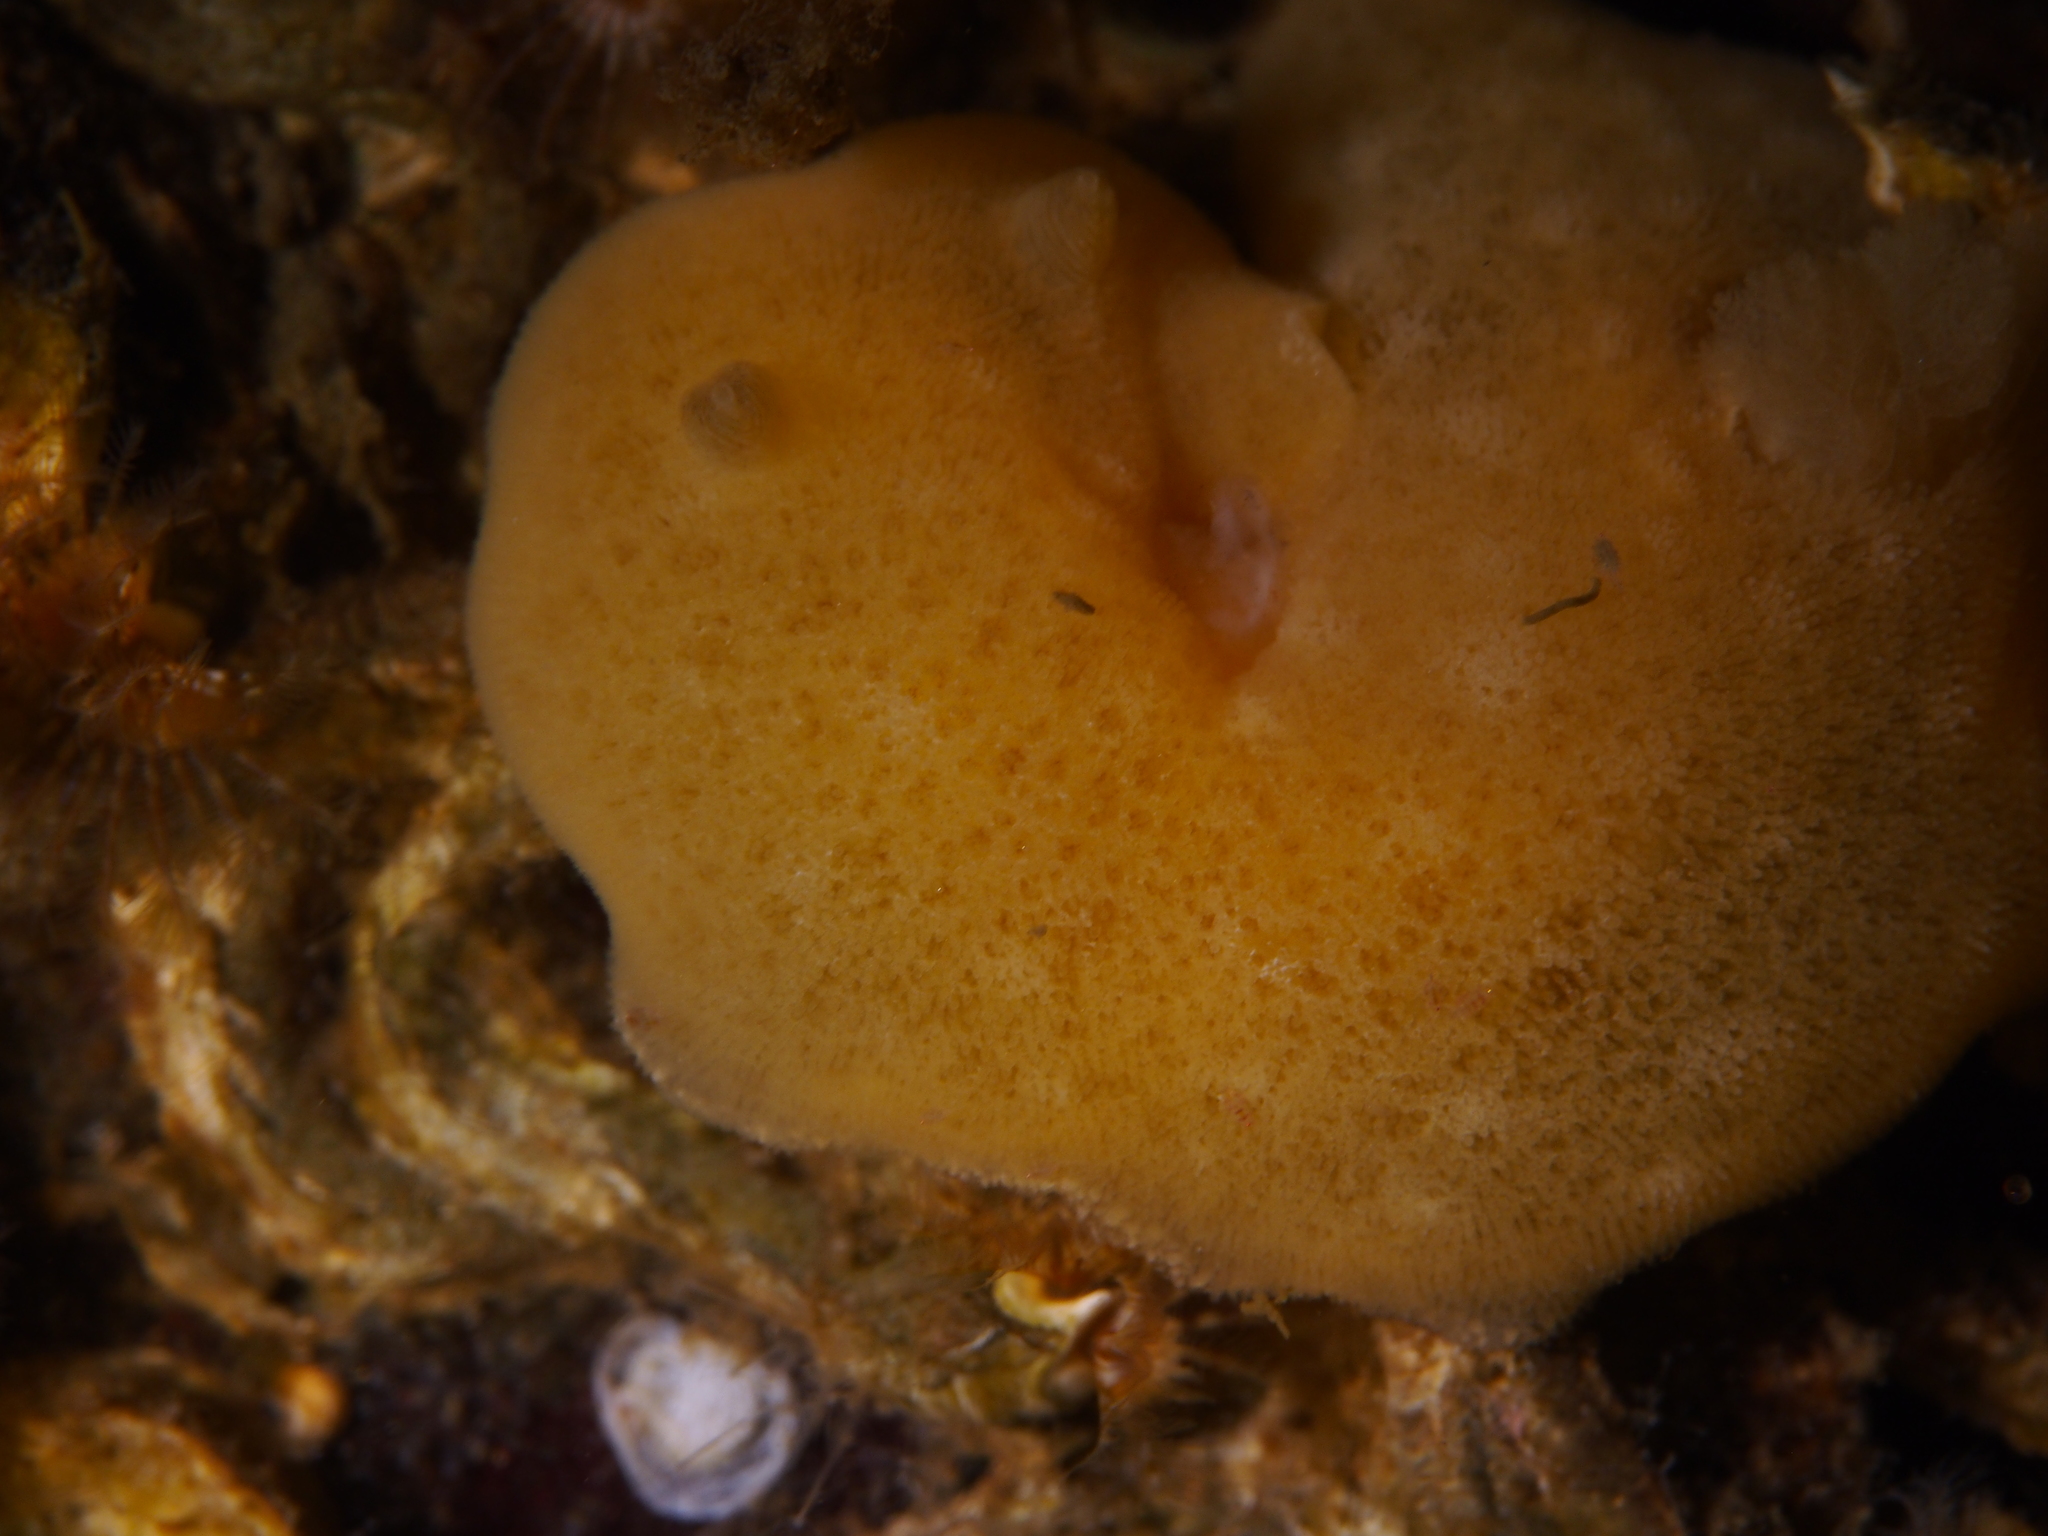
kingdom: Animalia
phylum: Mollusca
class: Gastropoda
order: Nudibranchia
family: Discodorididae
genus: Jorunna
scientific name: Jorunna tomentosa
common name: Grey sea slug
